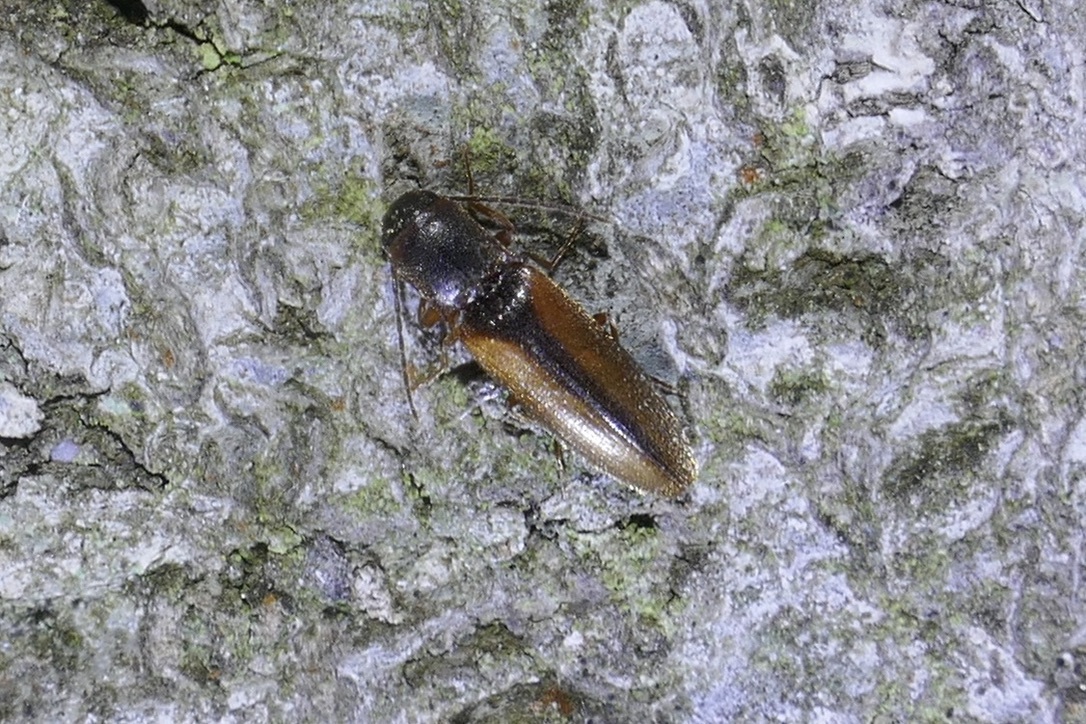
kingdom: Animalia
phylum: Arthropoda
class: Insecta
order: Coleoptera
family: Elateridae
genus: Dalopius
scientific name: Dalopius marginatus
